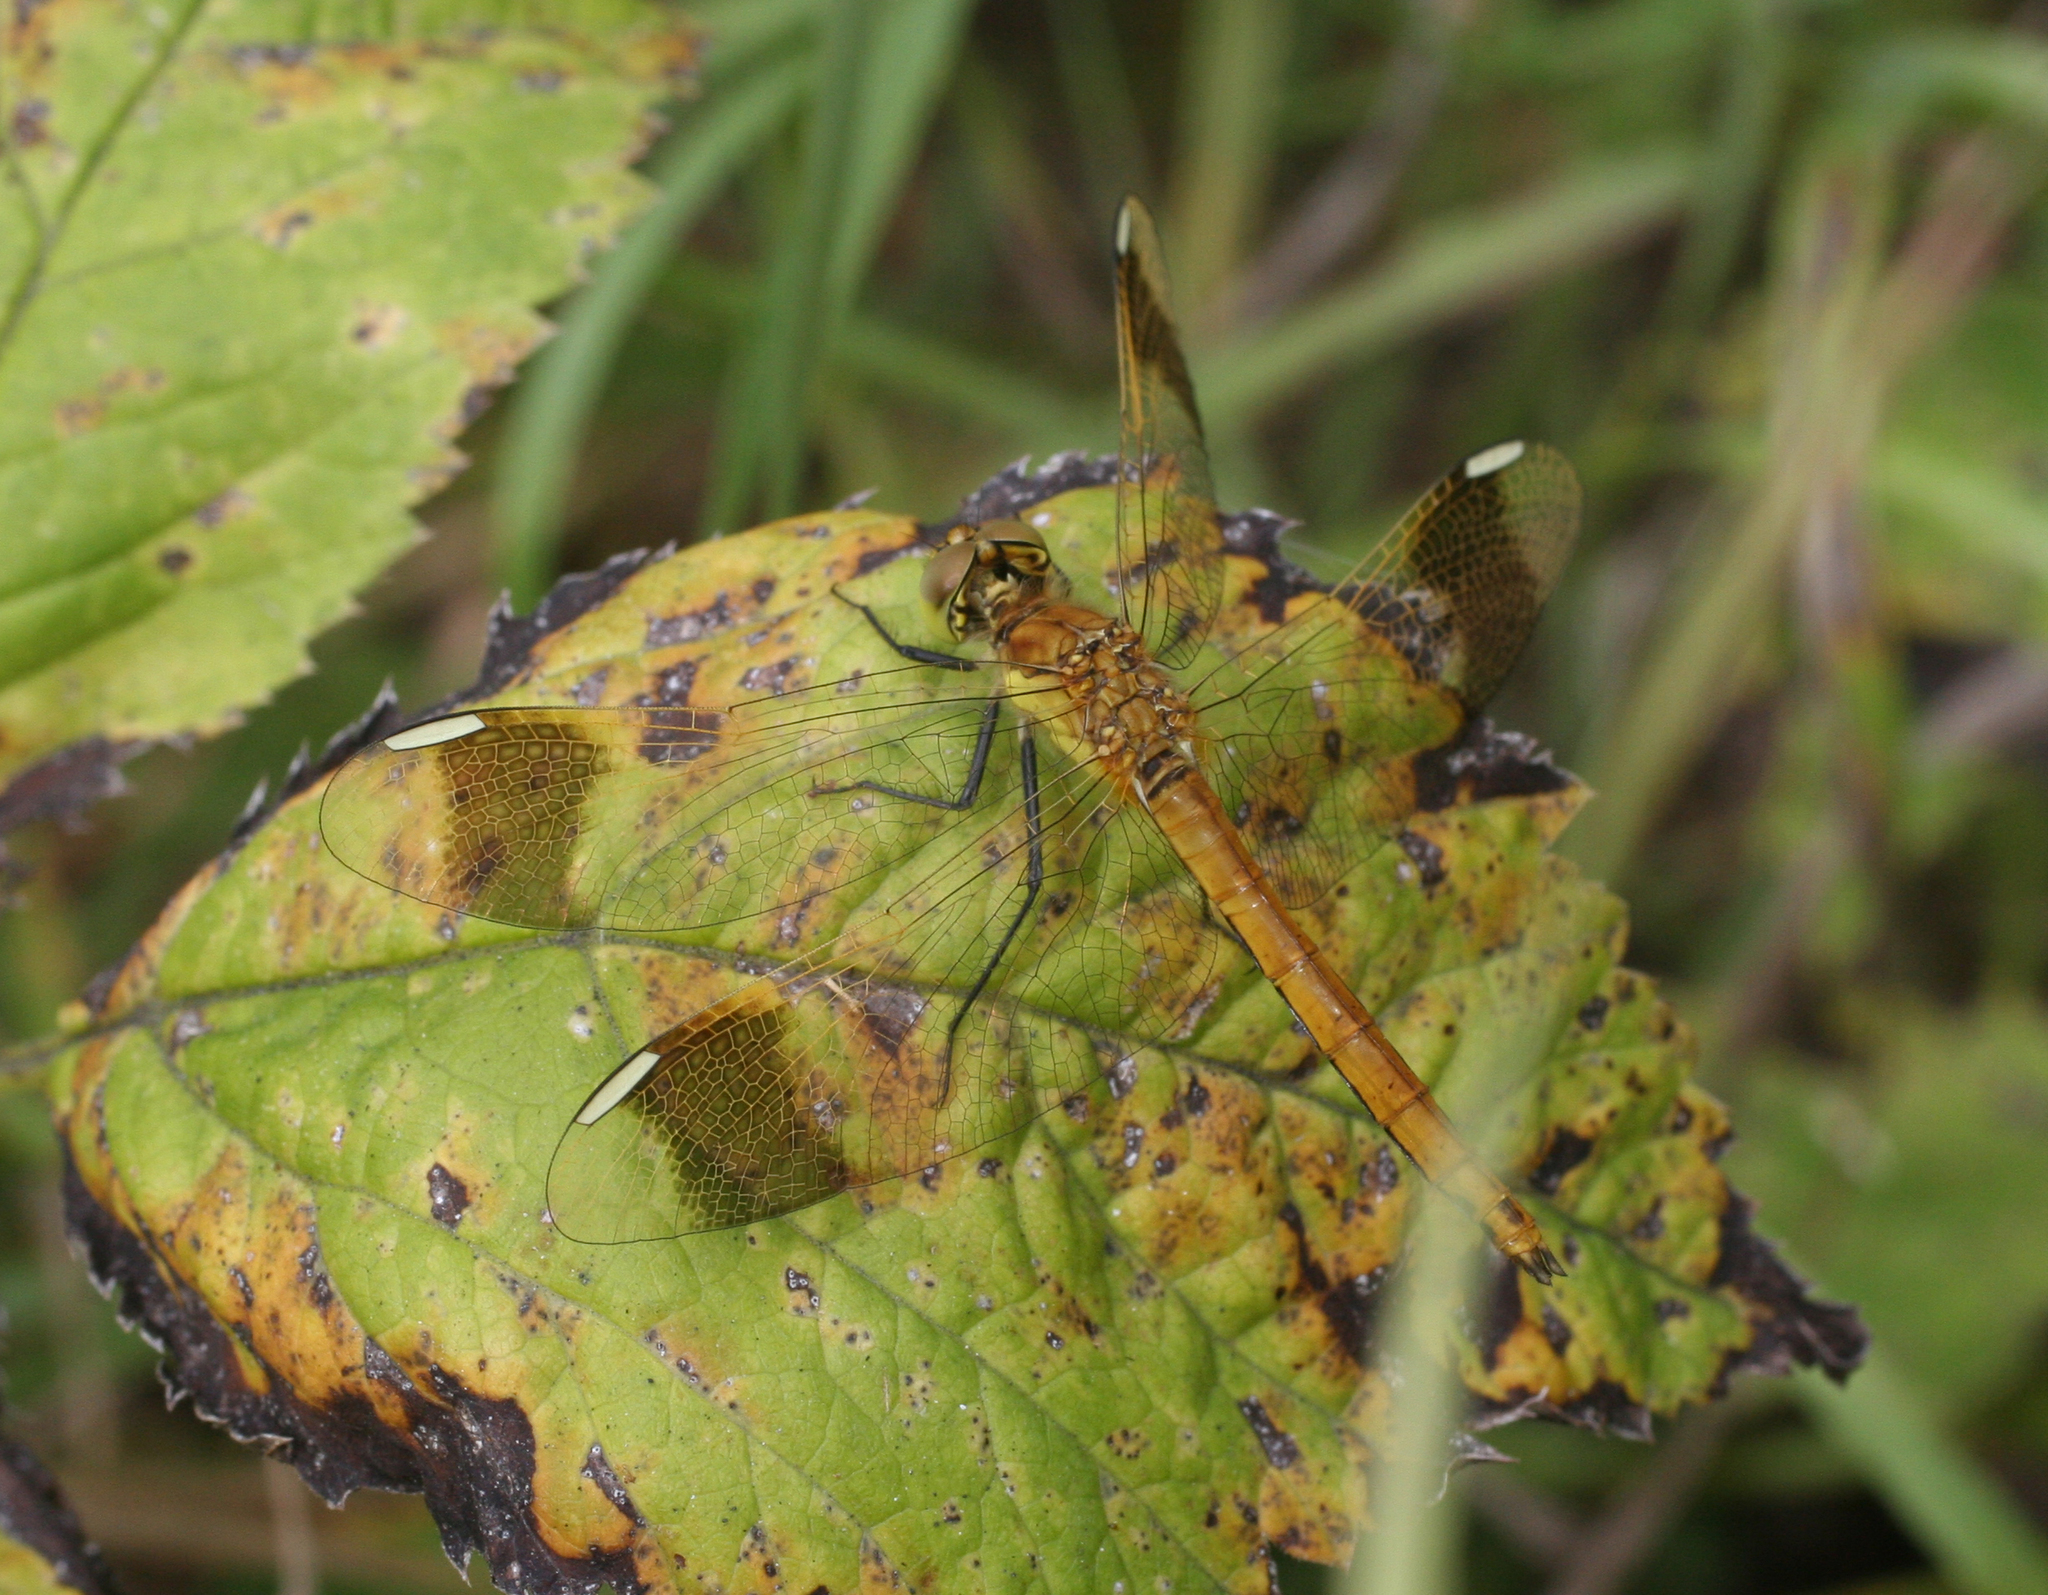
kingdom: Animalia
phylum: Arthropoda
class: Insecta
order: Odonata
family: Libellulidae
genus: Sympetrum
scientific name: Sympetrum pedemontanum
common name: Banded darter
